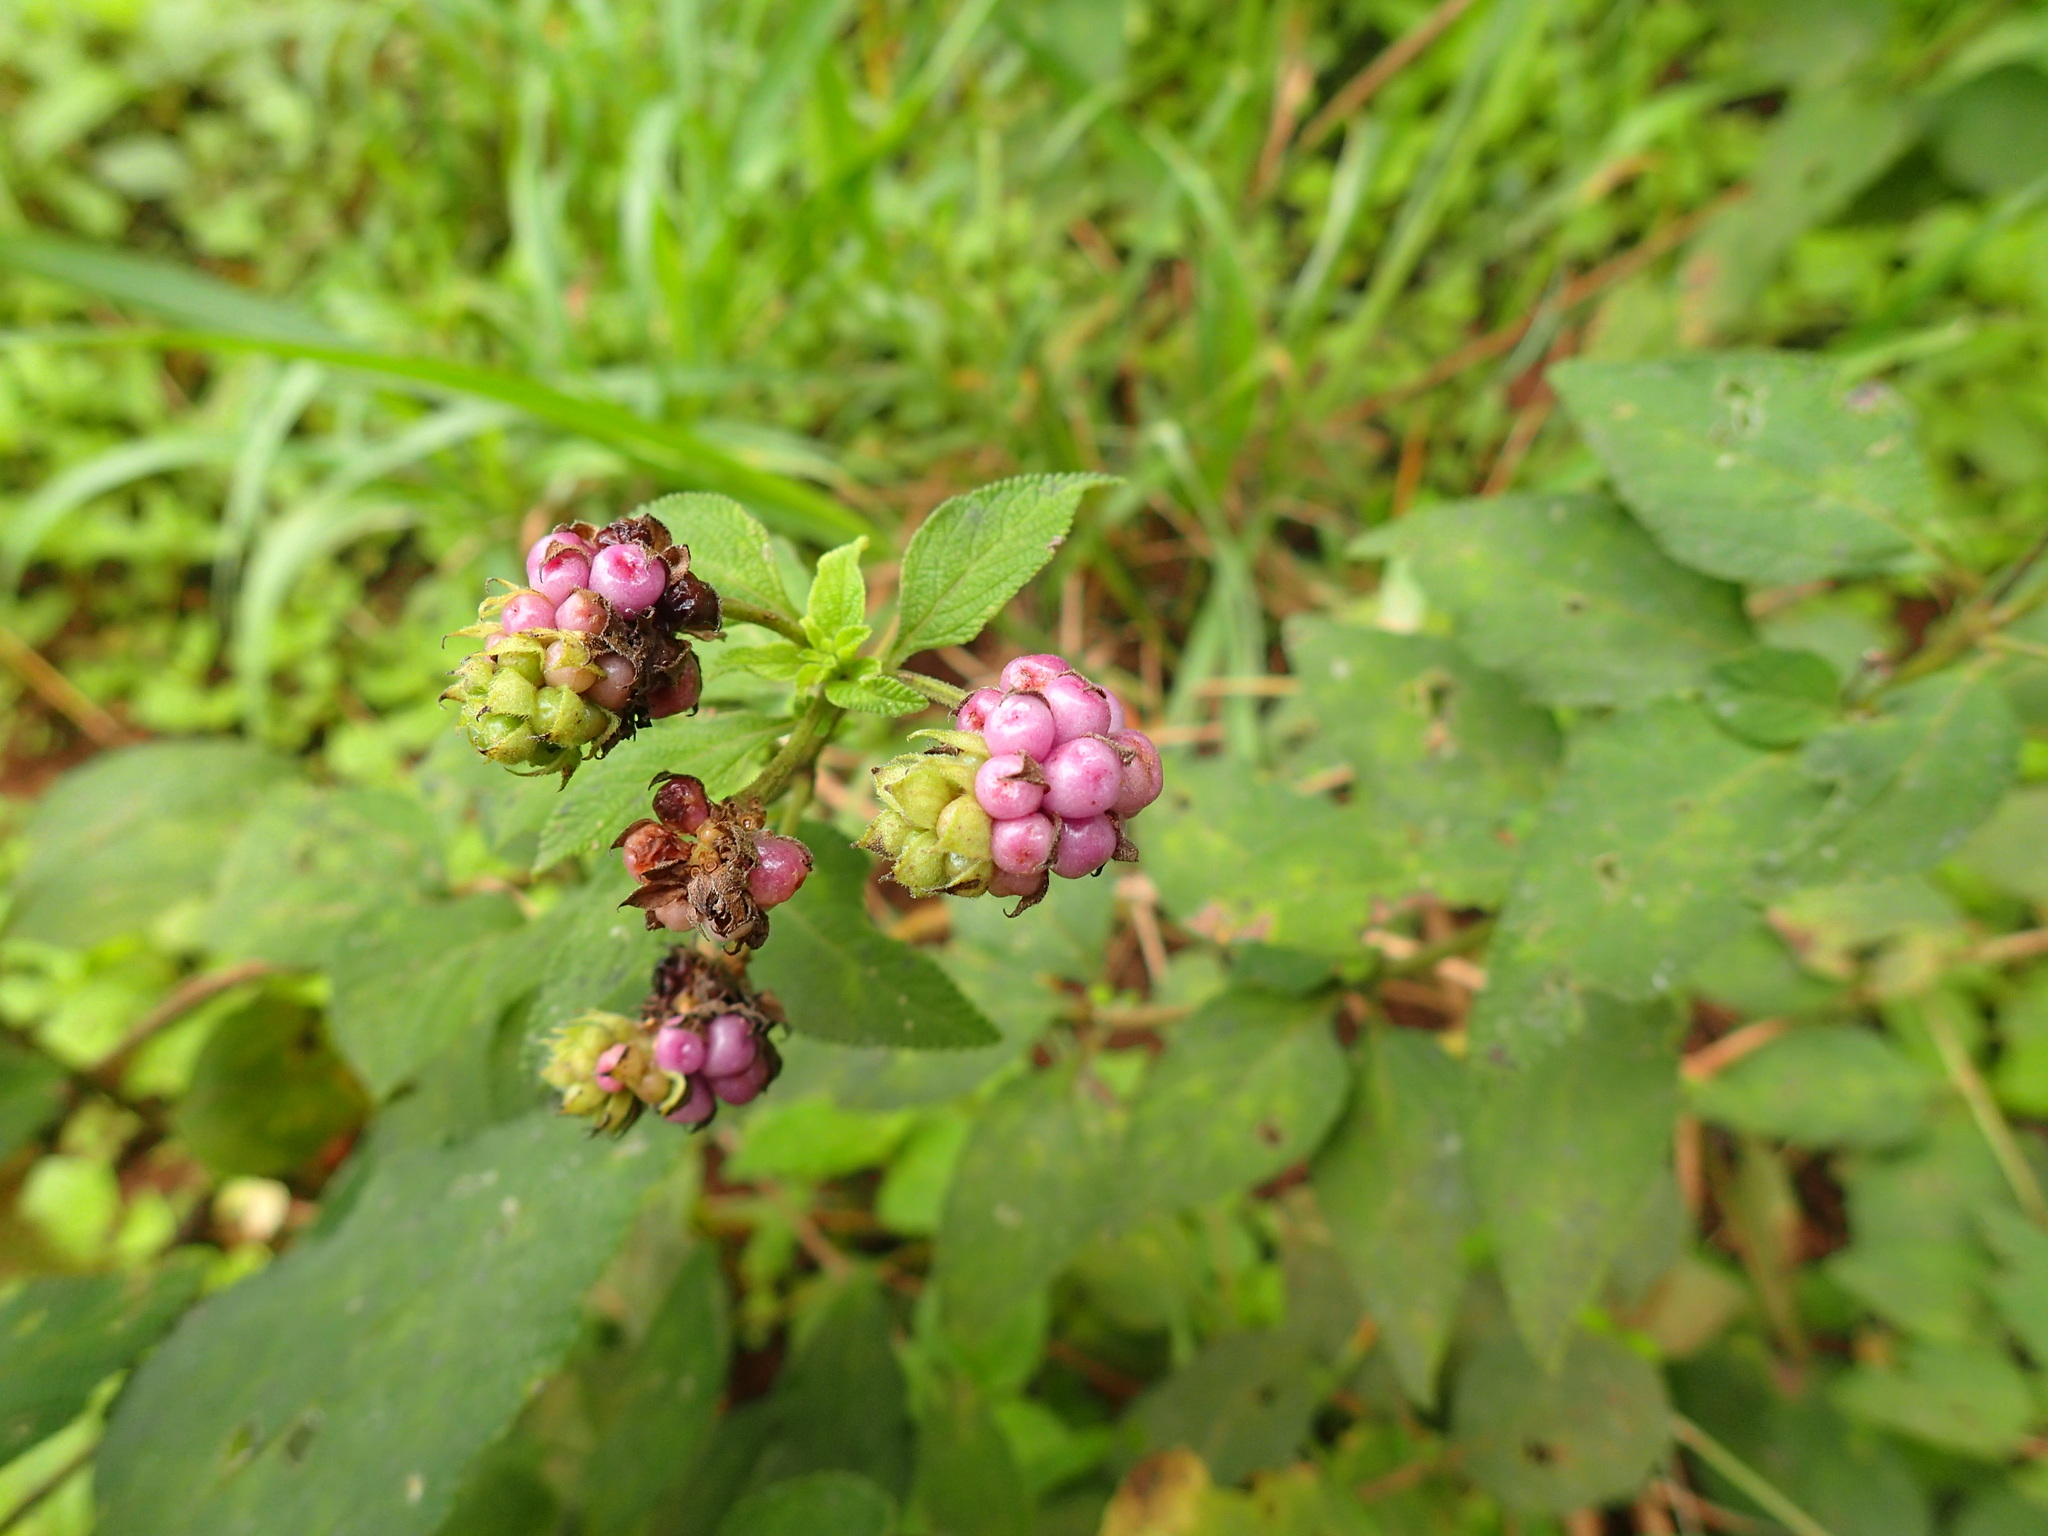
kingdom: Plantae
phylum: Tracheophyta
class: Magnoliopsida
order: Lamiales
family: Verbenaceae
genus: Lantana
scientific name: Lantana rugosa
